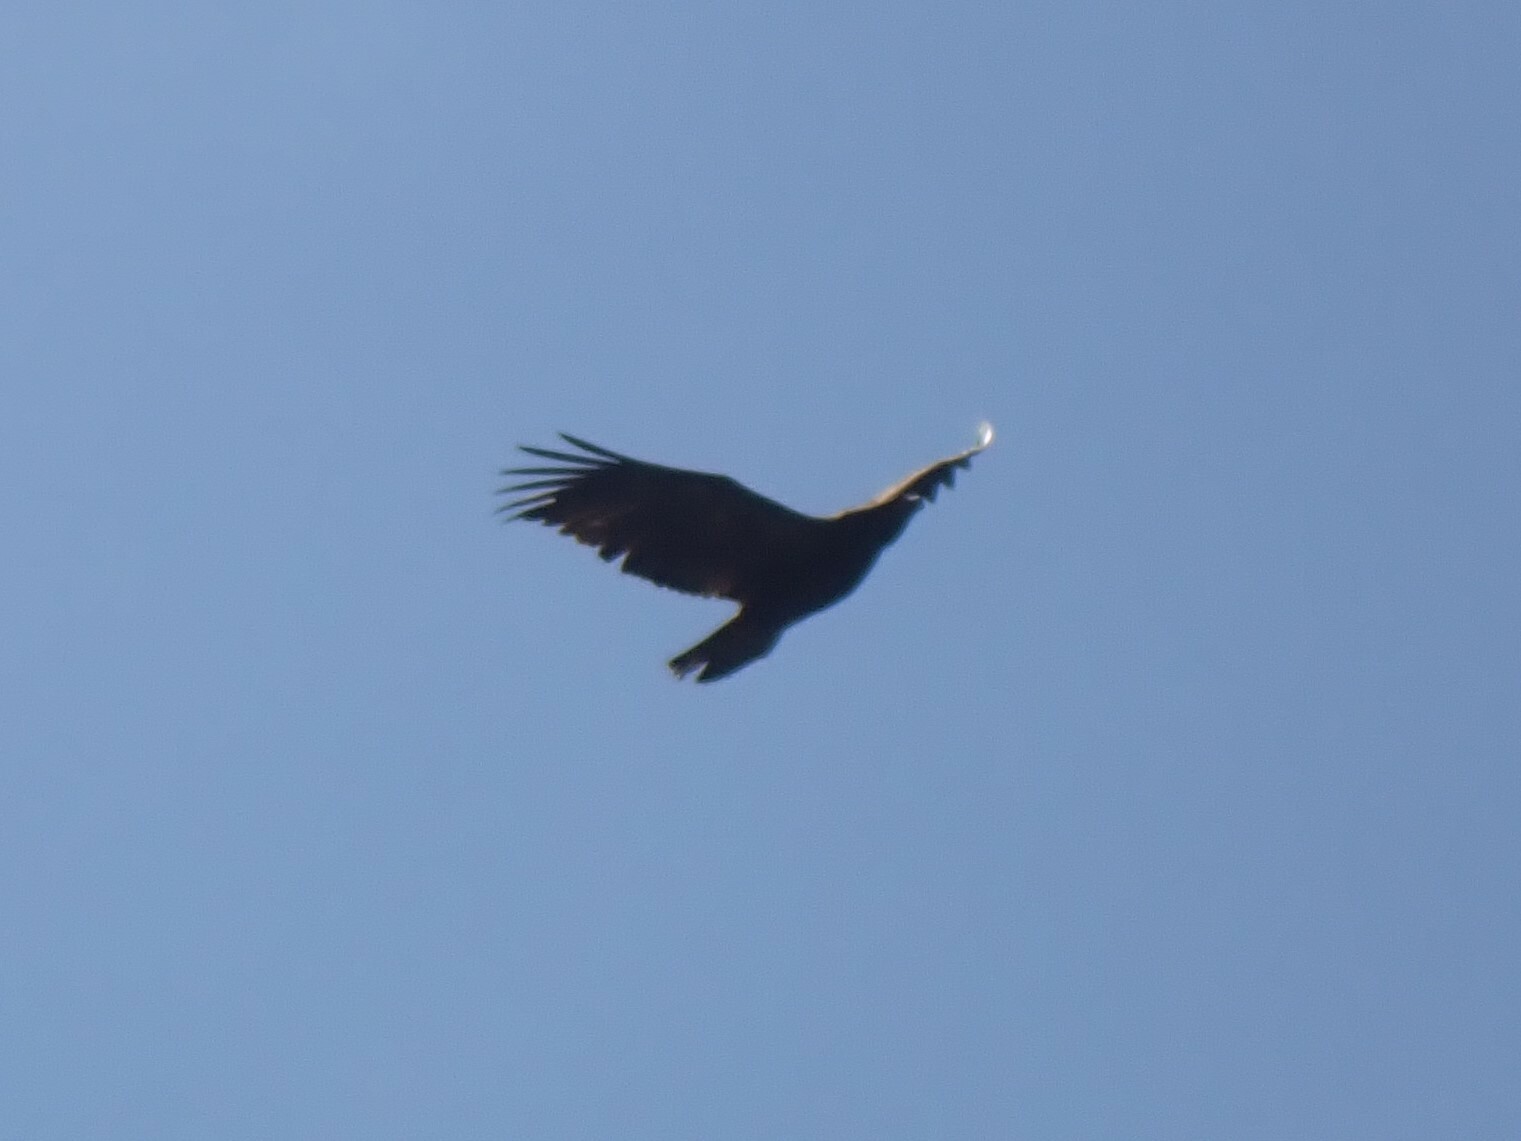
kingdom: Animalia
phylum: Chordata
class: Aves
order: Accipitriformes
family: Accipitridae
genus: Haliaeetus
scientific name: Haliaeetus leucocephalus
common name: Bald eagle
